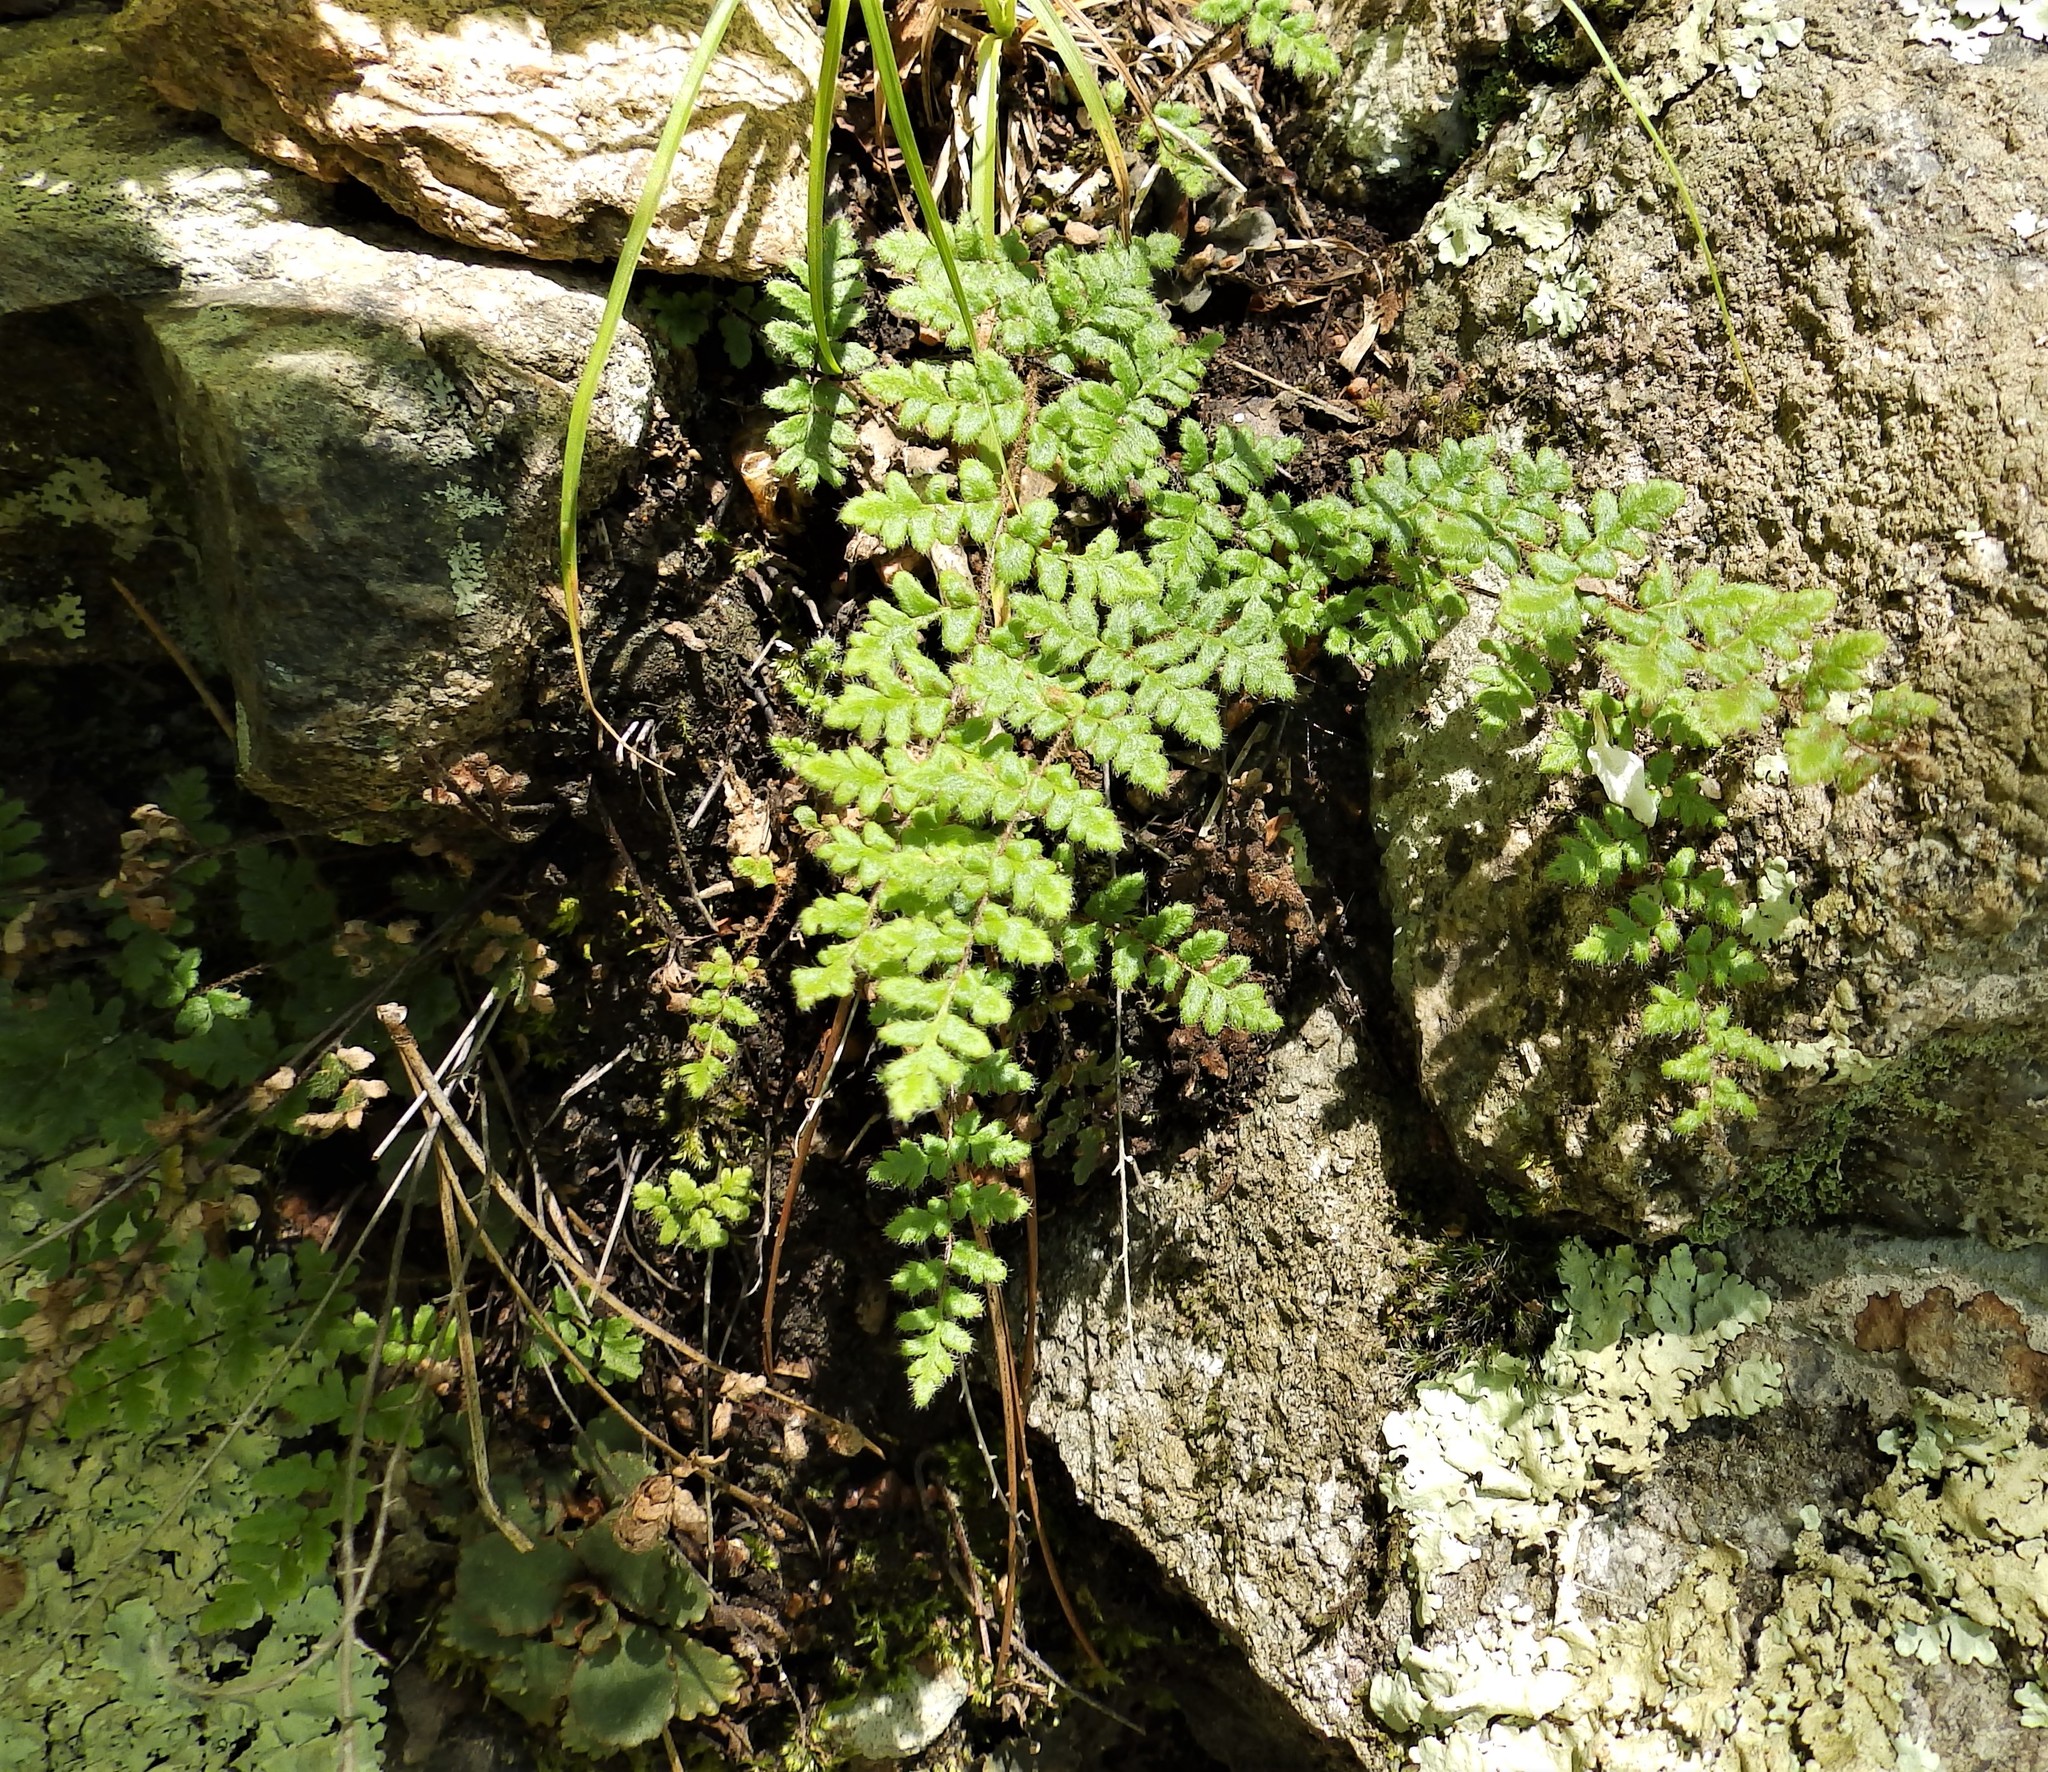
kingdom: Plantae
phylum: Tracheophyta
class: Polypodiopsida
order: Polypodiales
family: Pteridaceae
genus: Myriopteris
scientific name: Myriopteris lanosa
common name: Hairy lip fern
